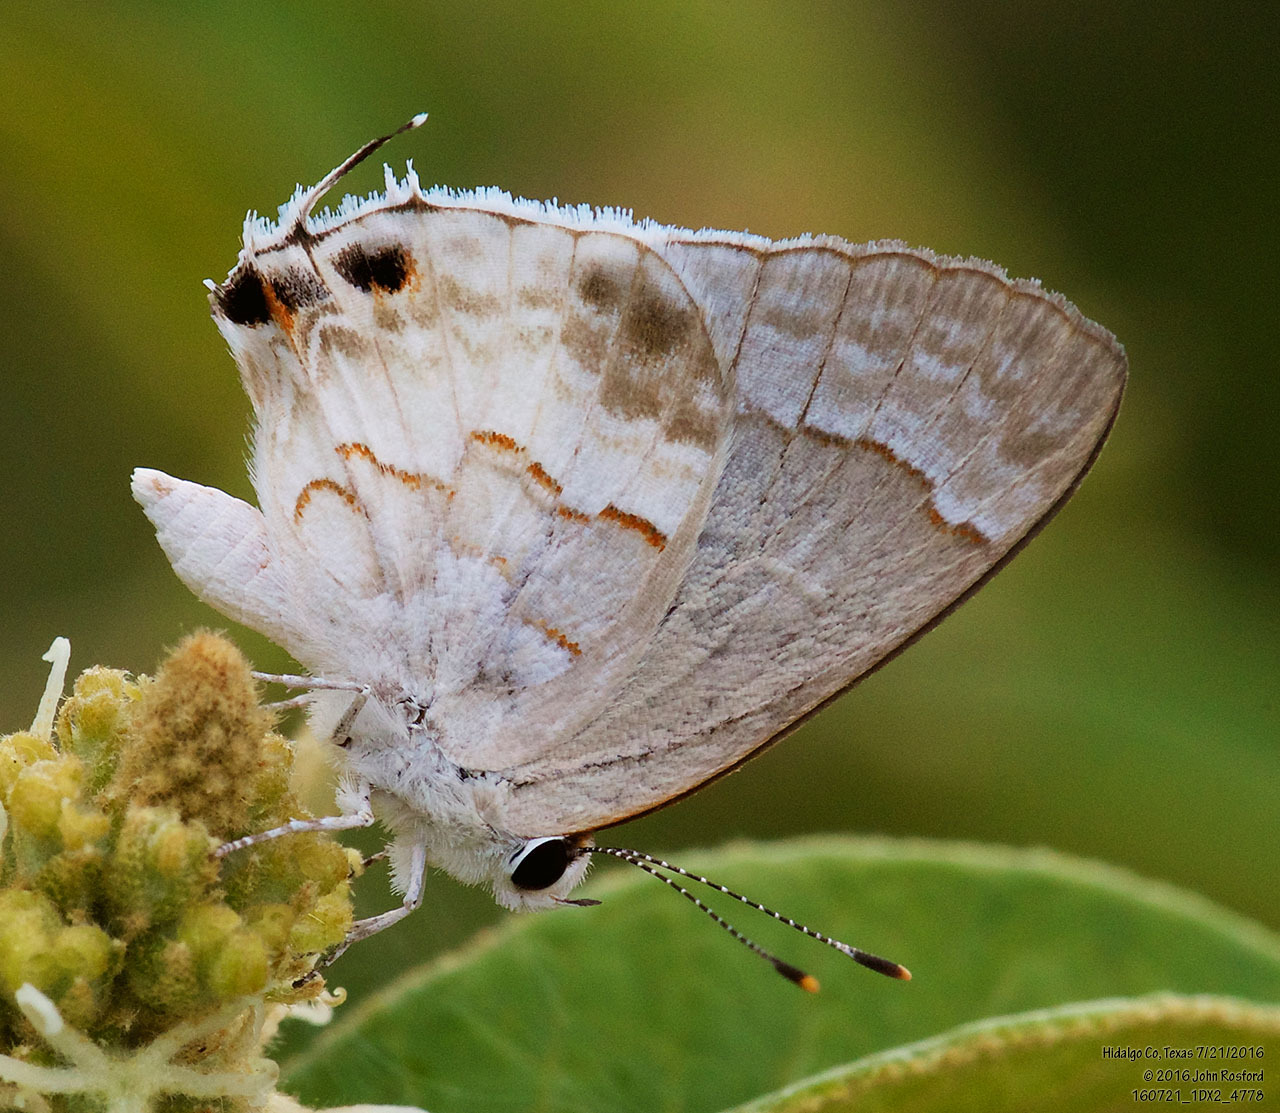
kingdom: Animalia
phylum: Arthropoda
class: Insecta
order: Lepidoptera
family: Lycaenidae
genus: Strymon
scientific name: Strymon albata
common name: White scrub-hairstreak
